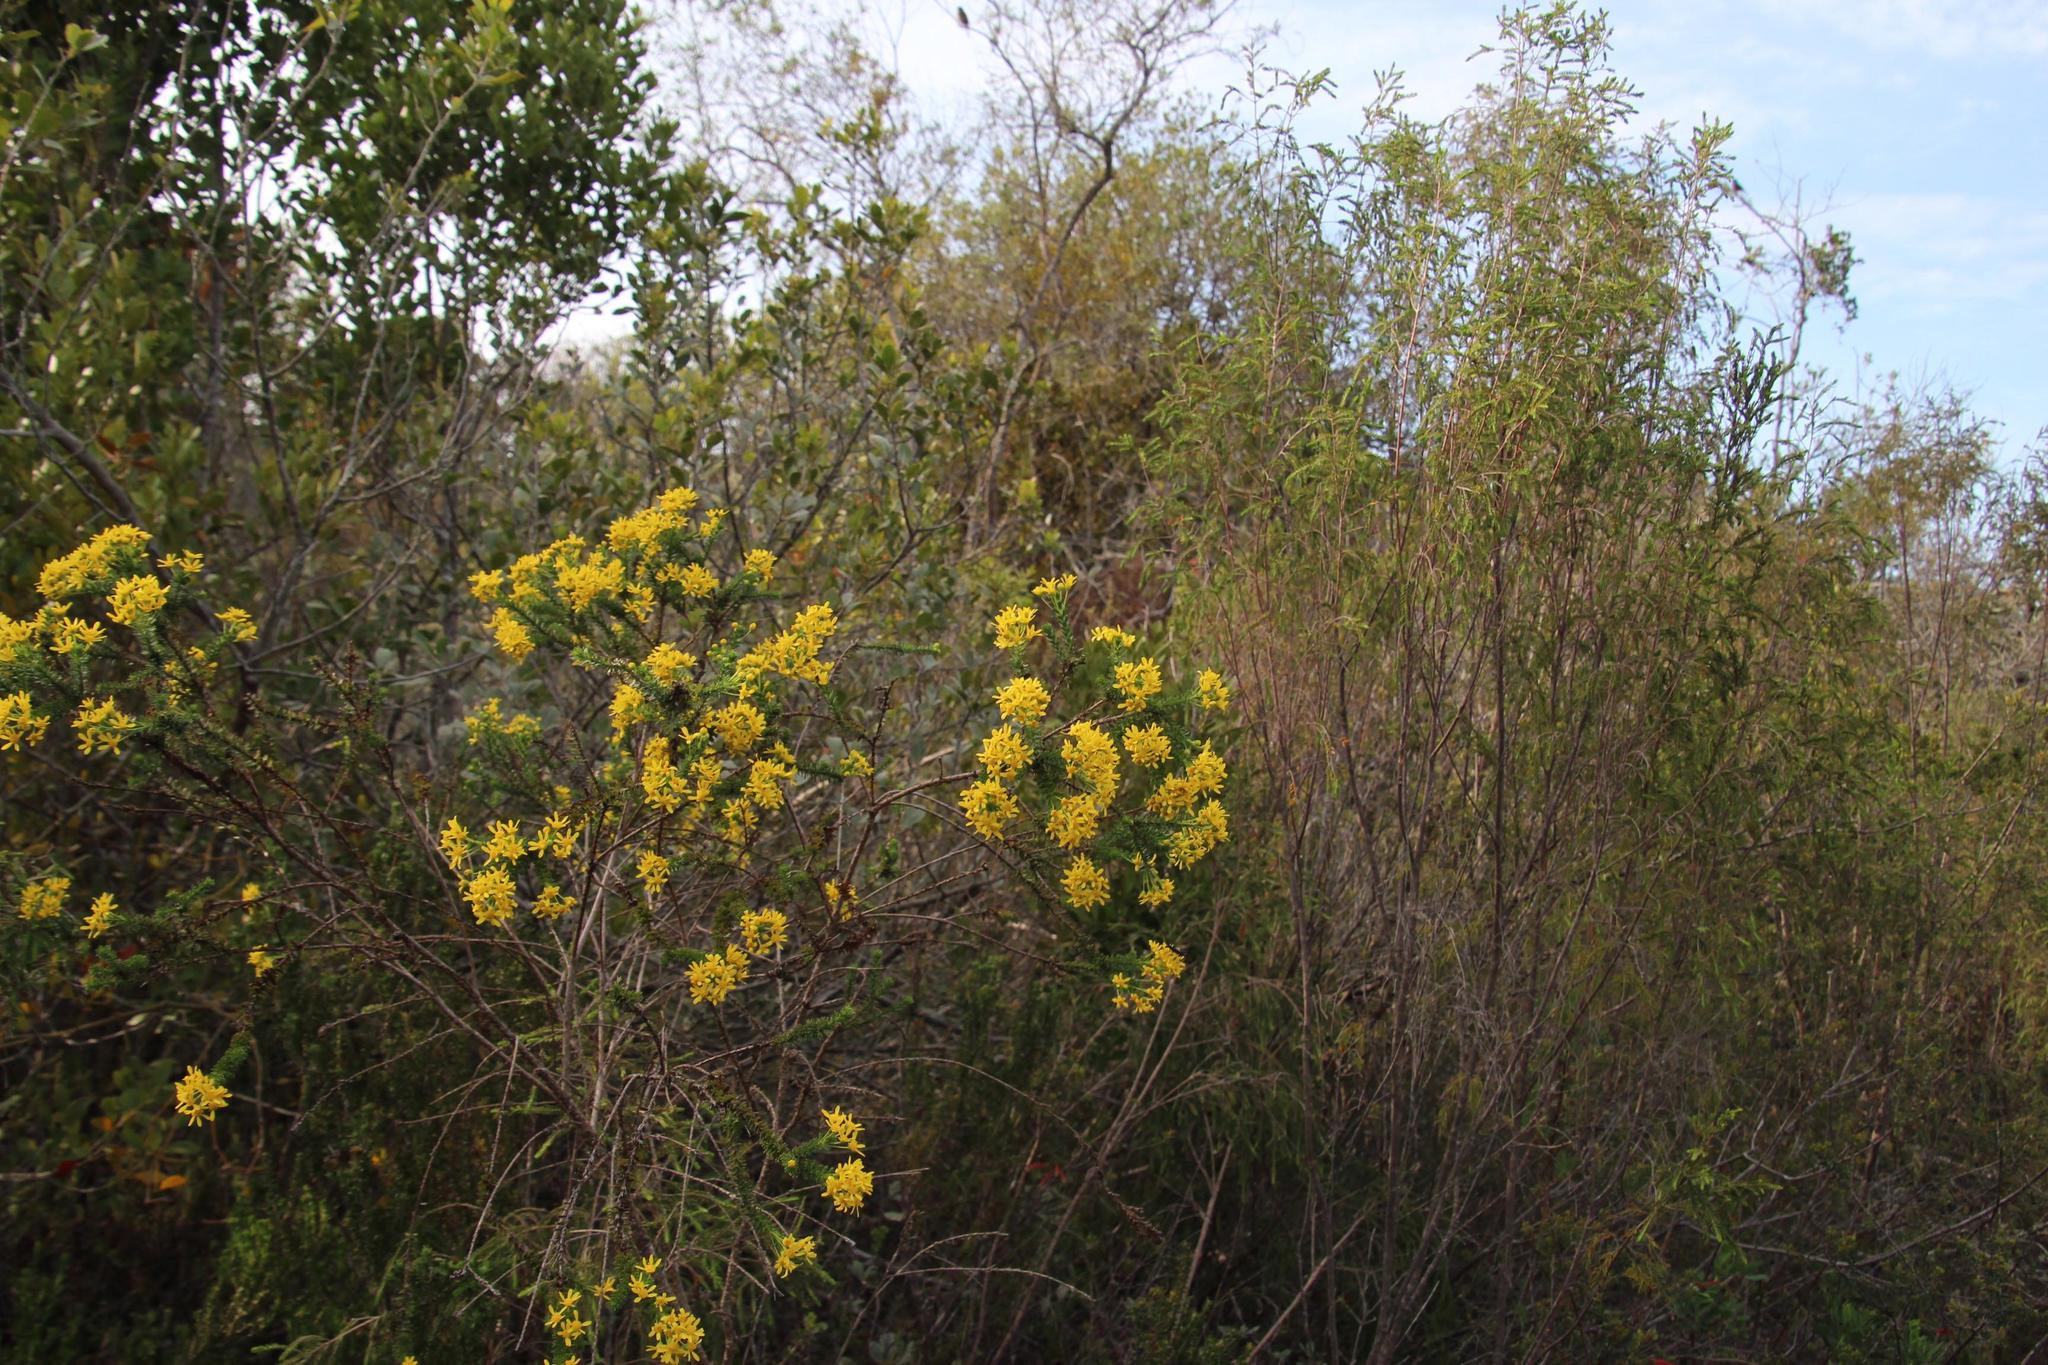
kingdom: Plantae
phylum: Tracheophyta
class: Magnoliopsida
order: Asterales
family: Asteraceae
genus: Euryops
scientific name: Euryops virgineus
